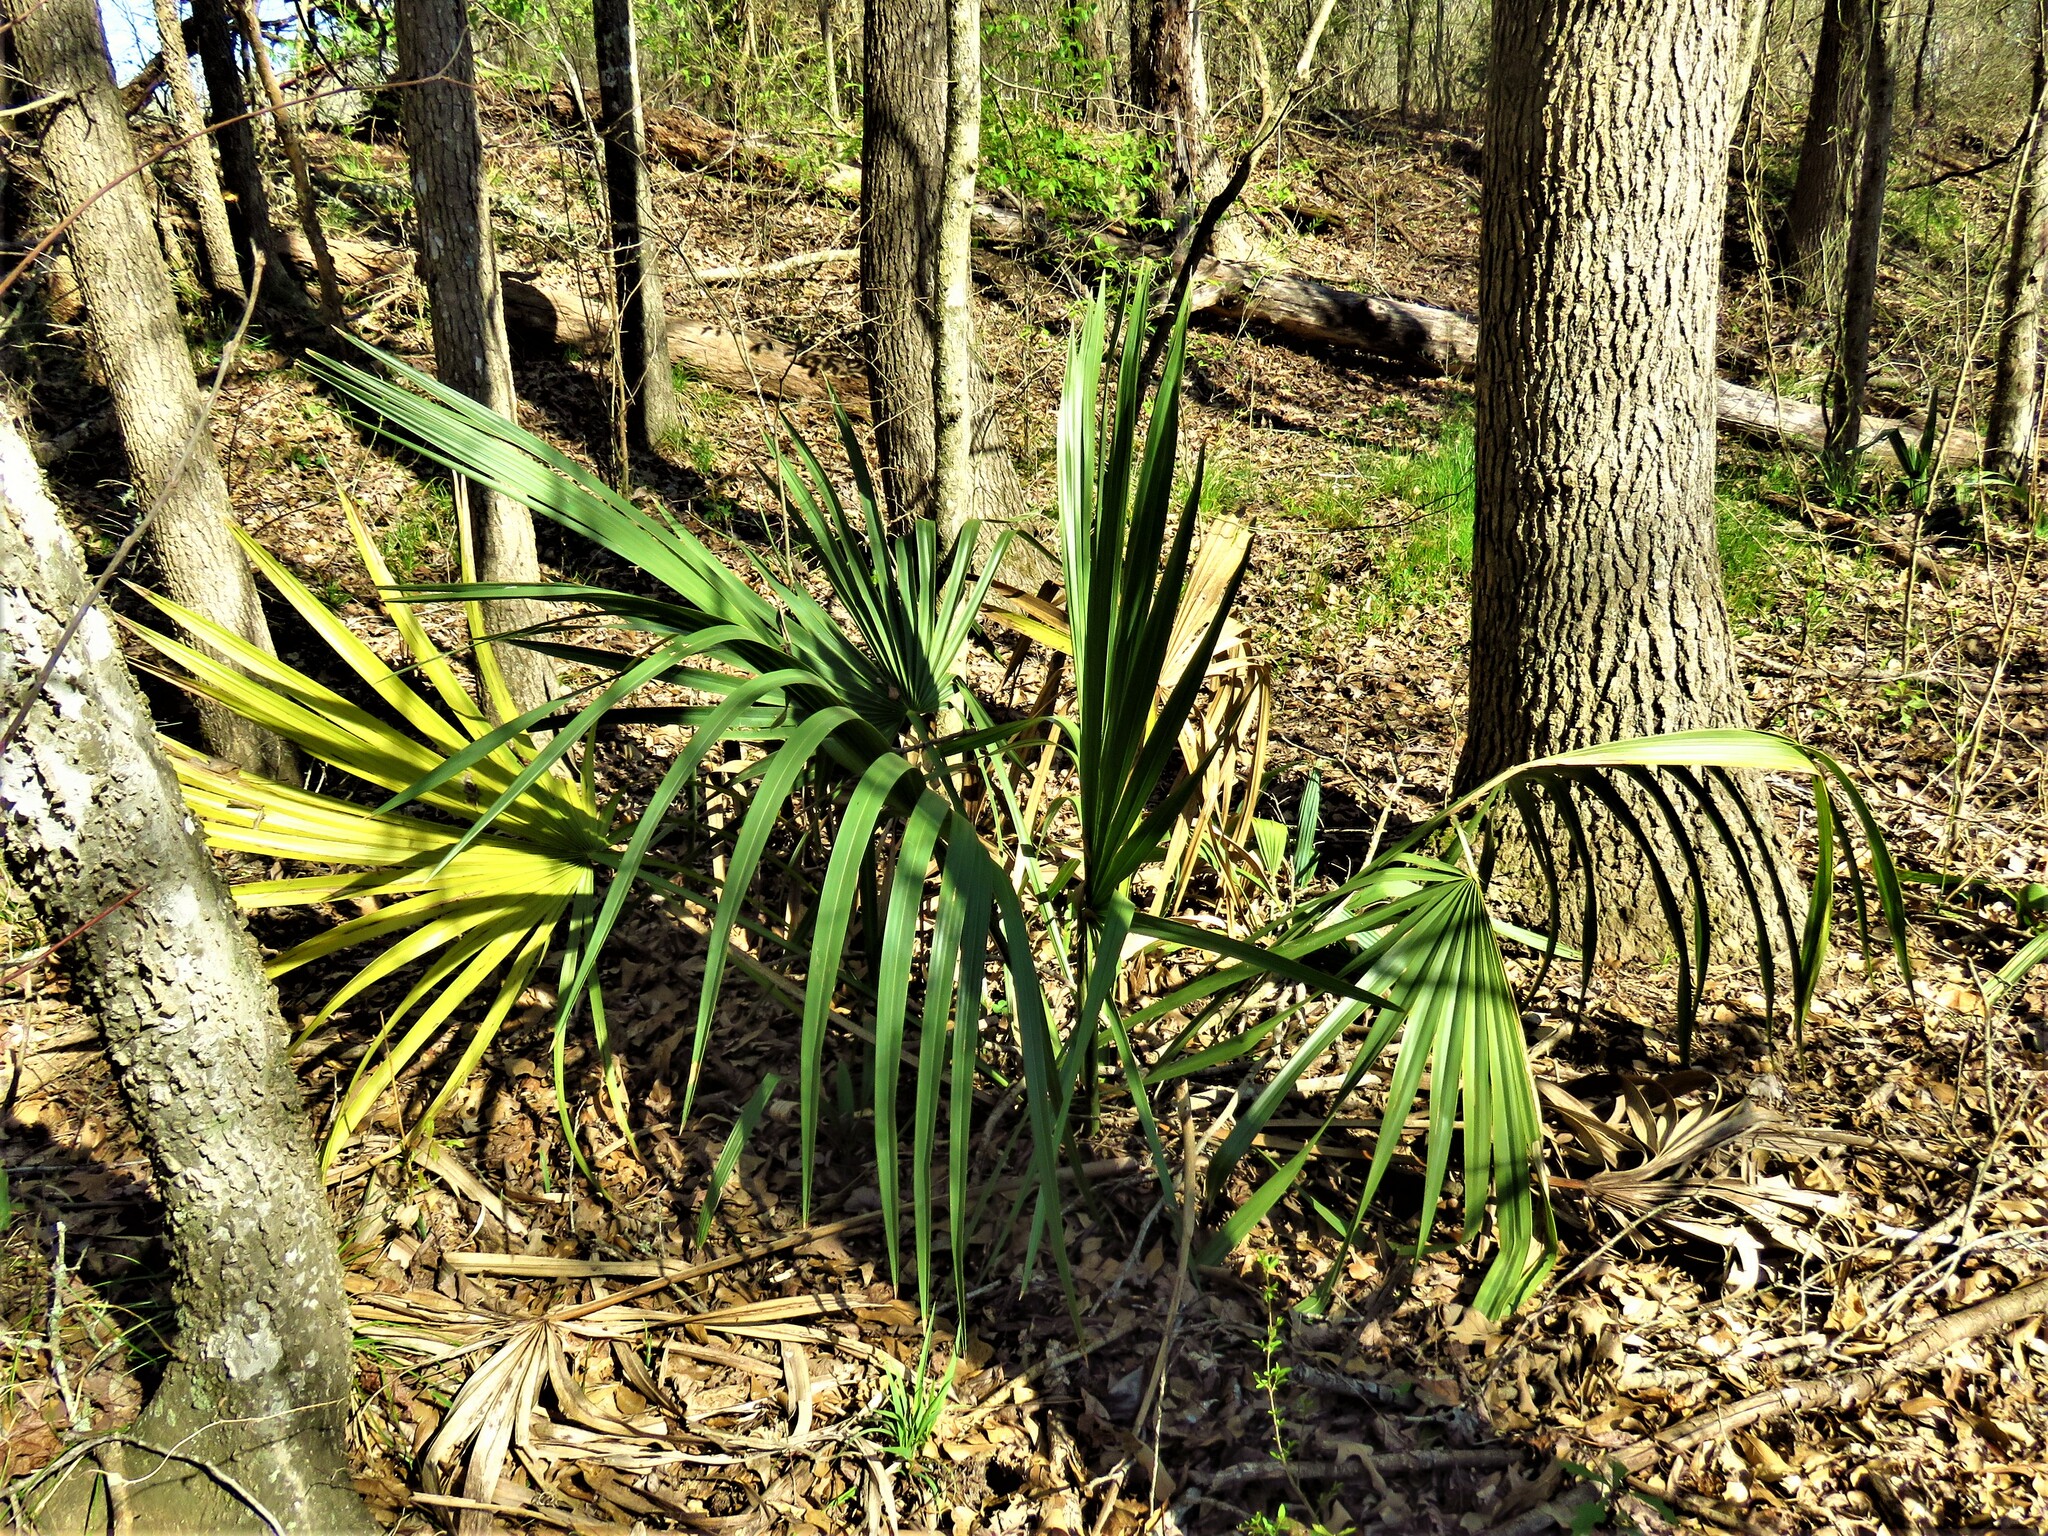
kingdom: Plantae
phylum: Tracheophyta
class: Liliopsida
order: Arecales
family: Arecaceae
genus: Sabal
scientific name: Sabal minor
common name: Dwarf palmetto
